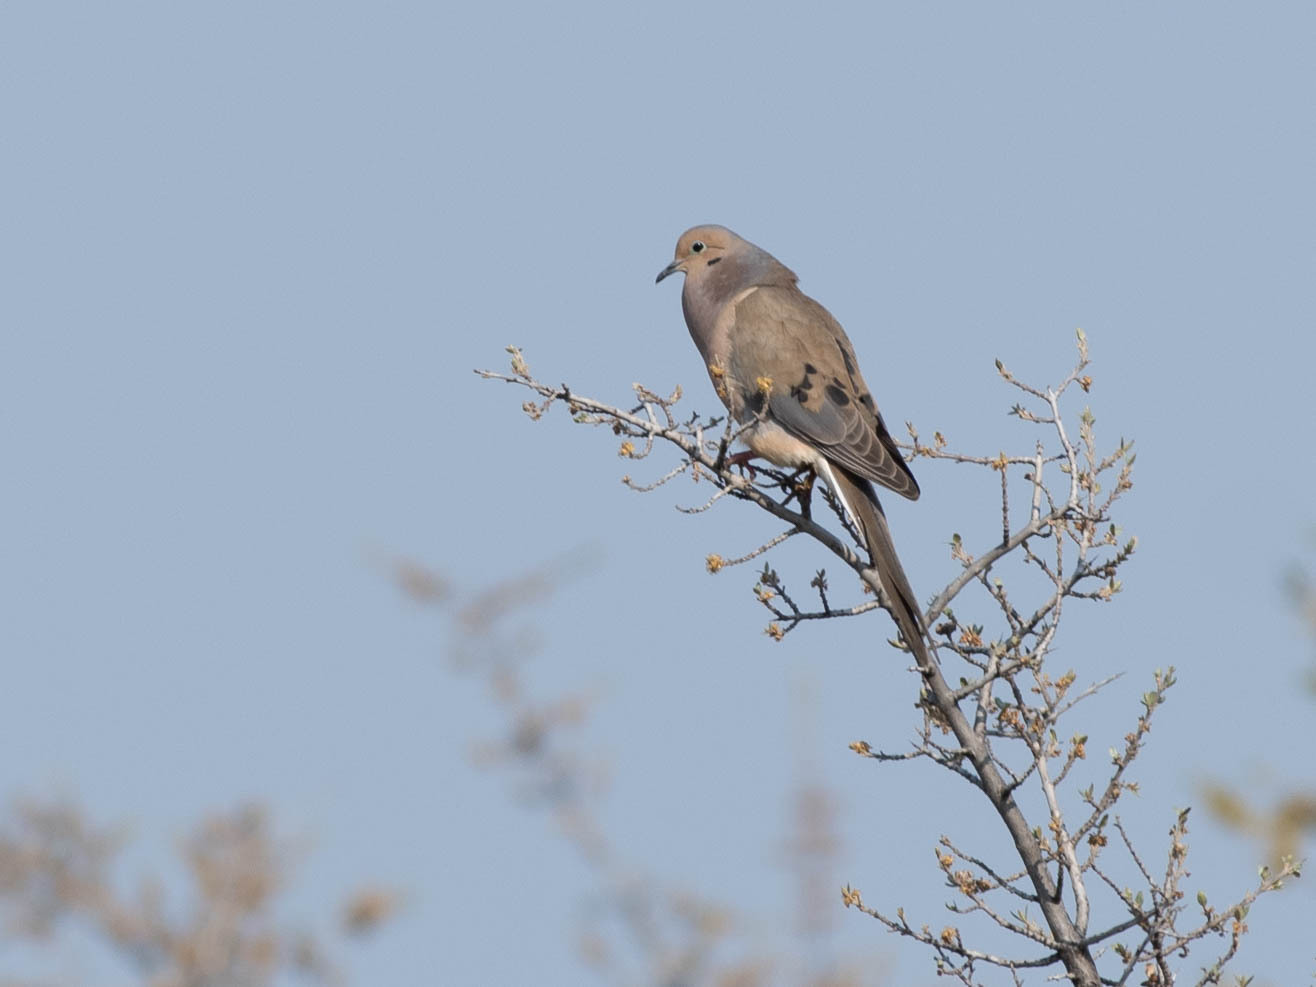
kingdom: Animalia
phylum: Chordata
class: Aves
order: Columbiformes
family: Columbidae
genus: Zenaida
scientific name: Zenaida macroura
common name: Mourning dove
